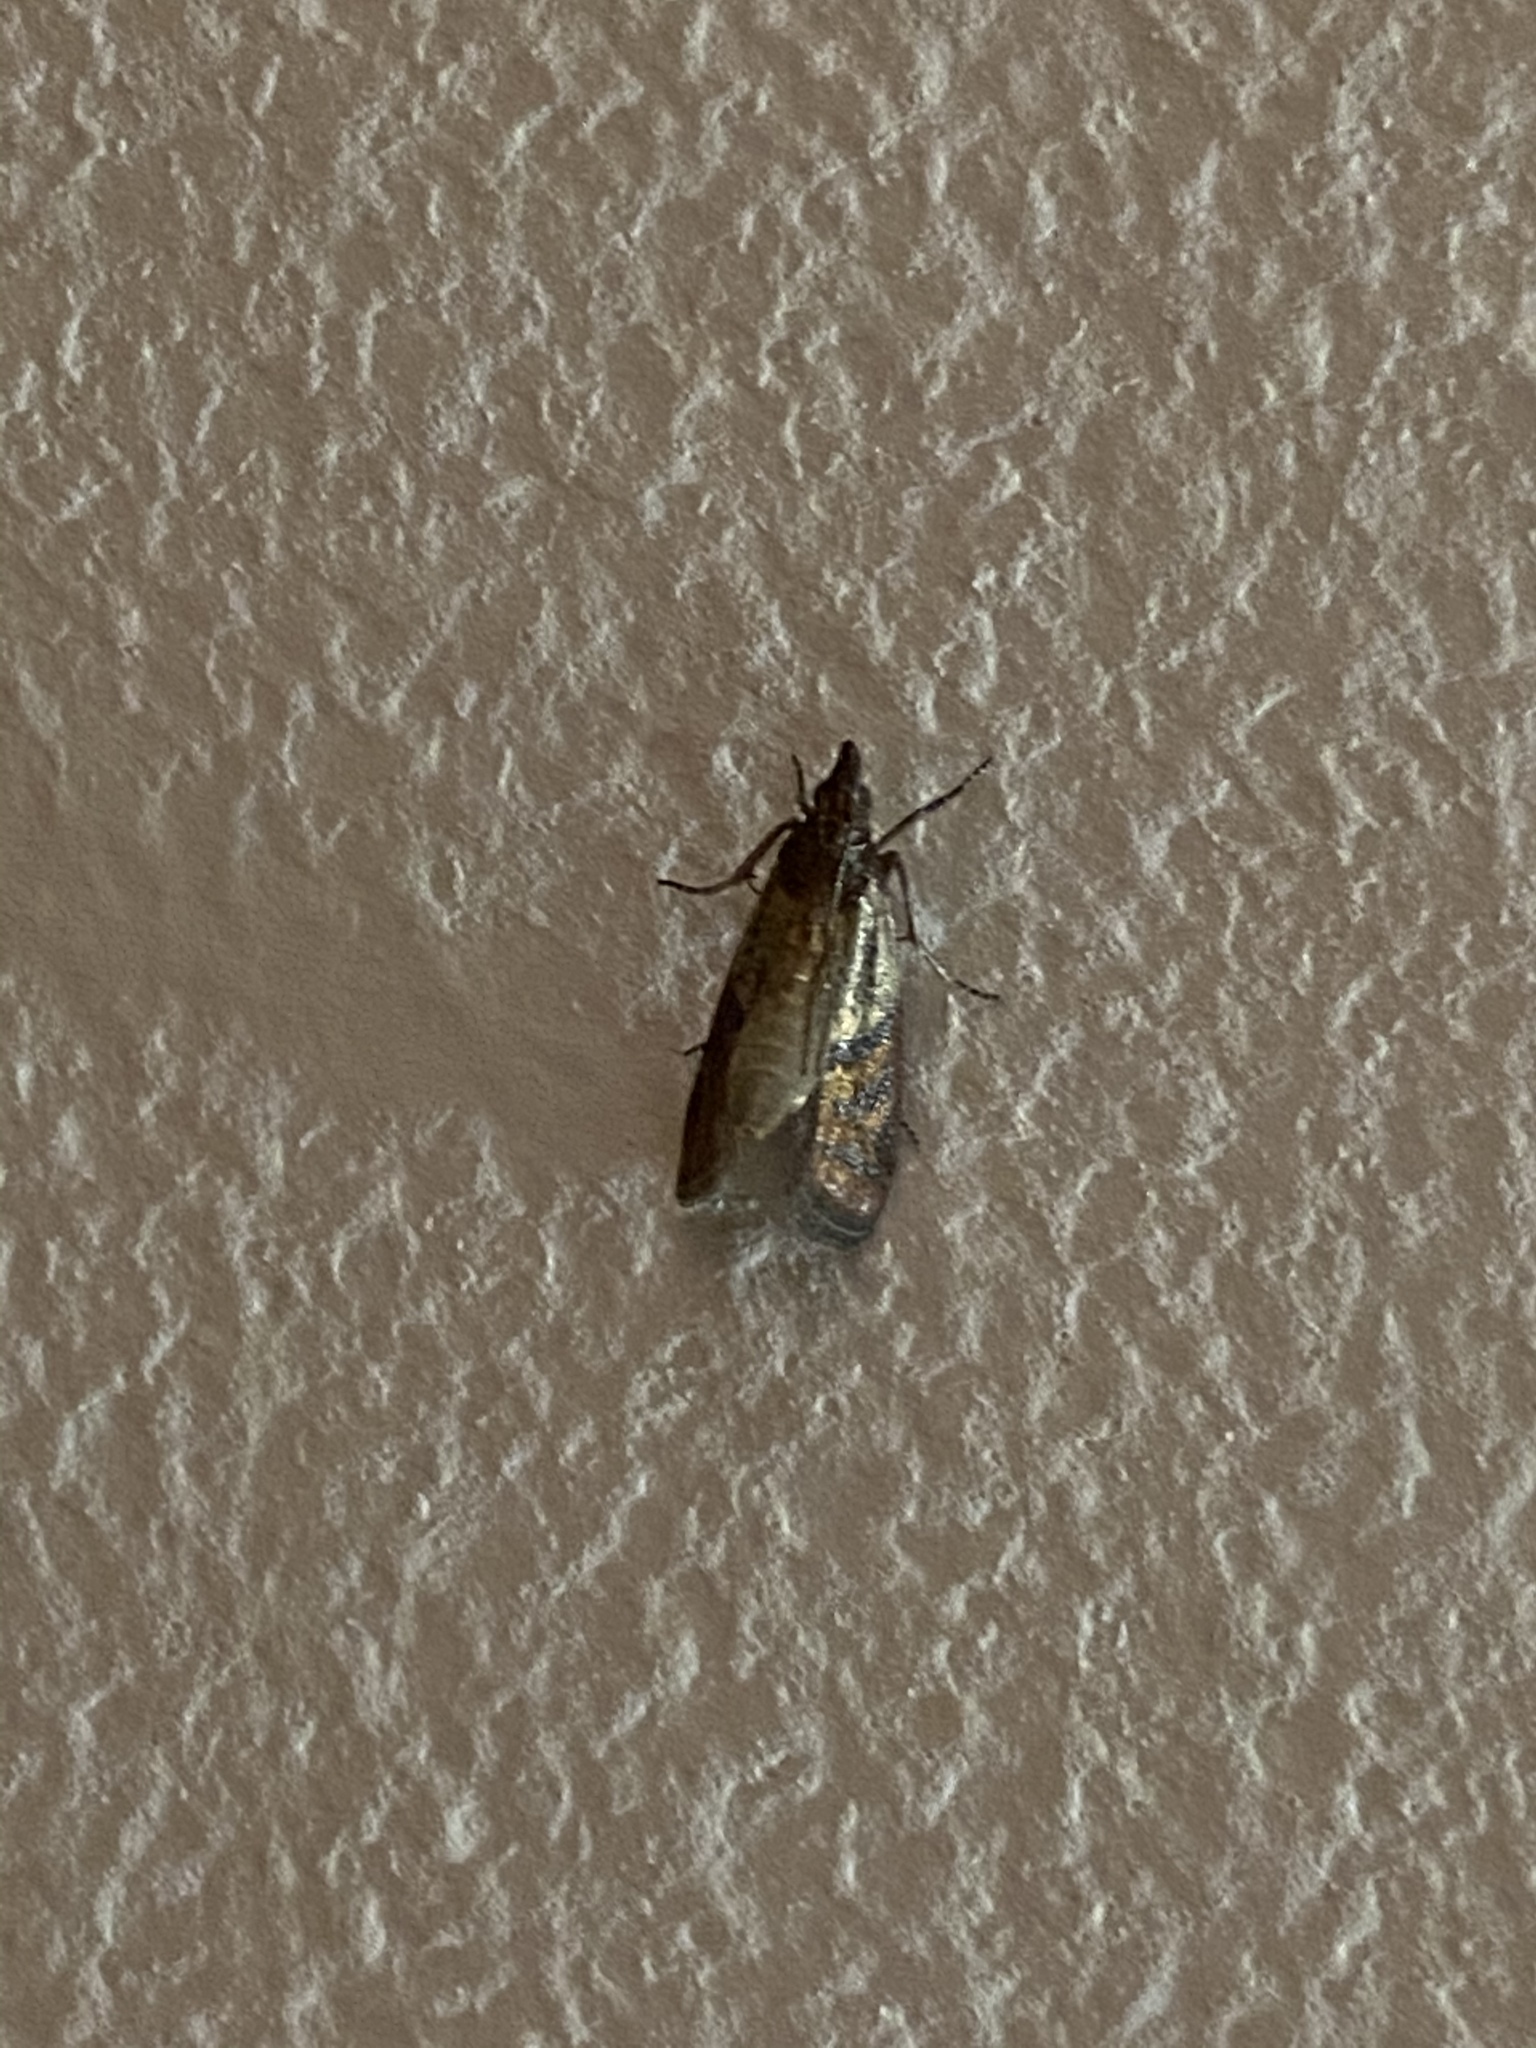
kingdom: Animalia
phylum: Arthropoda
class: Insecta
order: Lepidoptera
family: Pyralidae
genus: Plodia
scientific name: Plodia interpunctella
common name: Indian meal moth
